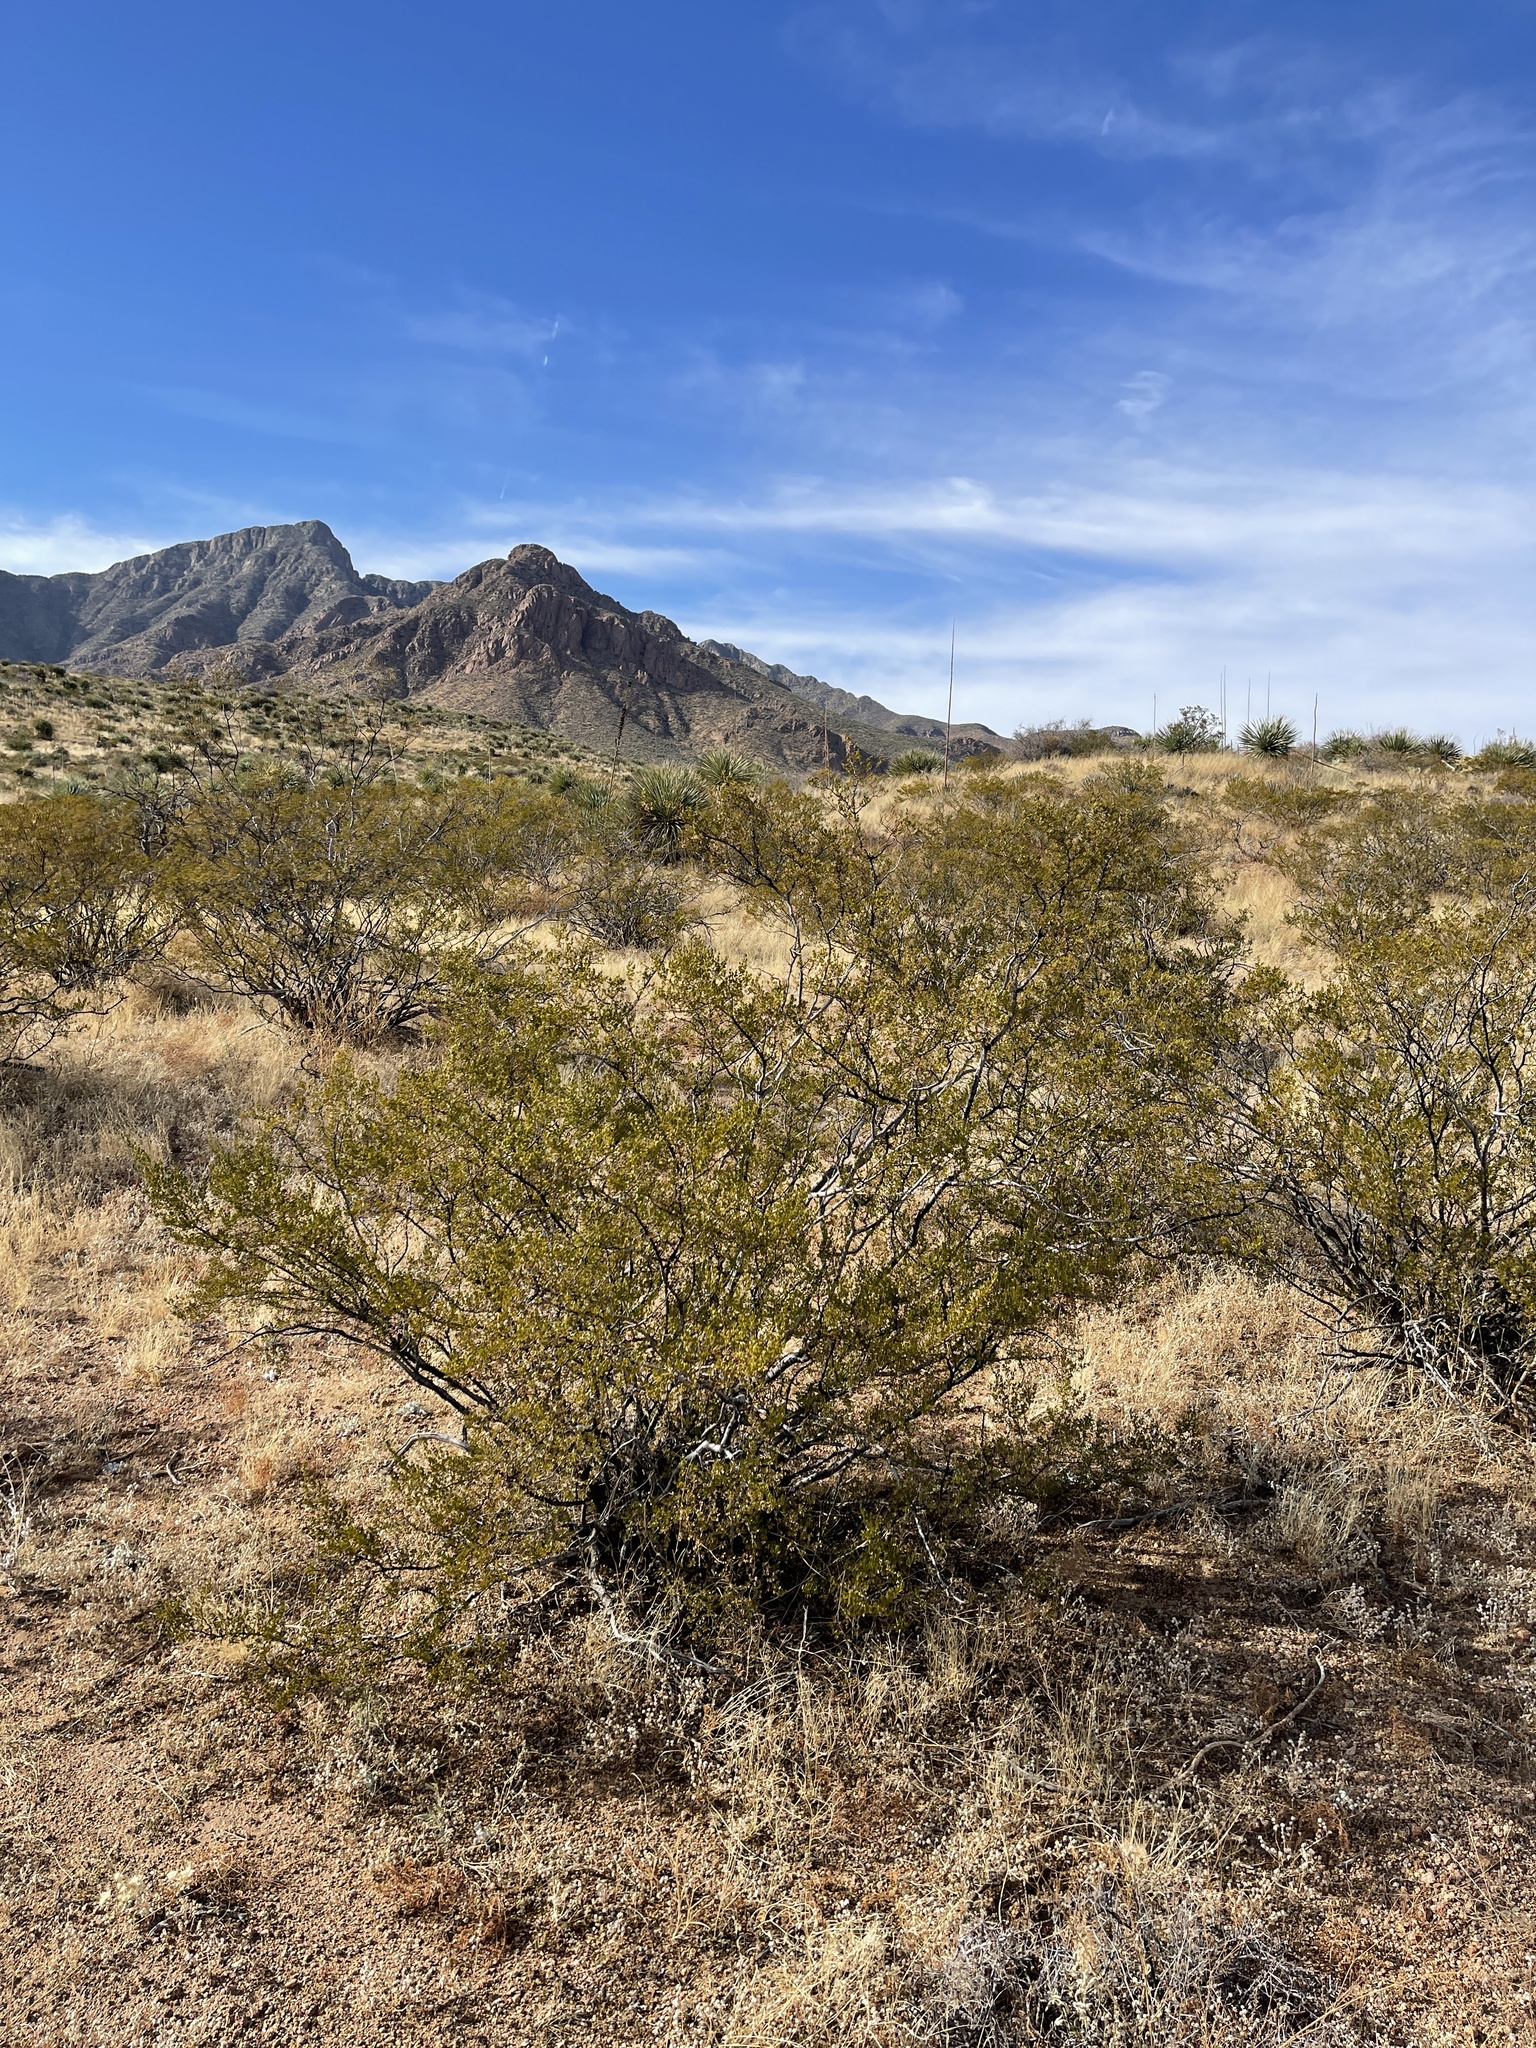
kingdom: Plantae
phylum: Tracheophyta
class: Magnoliopsida
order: Zygophyllales
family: Zygophyllaceae
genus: Larrea
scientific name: Larrea tridentata
